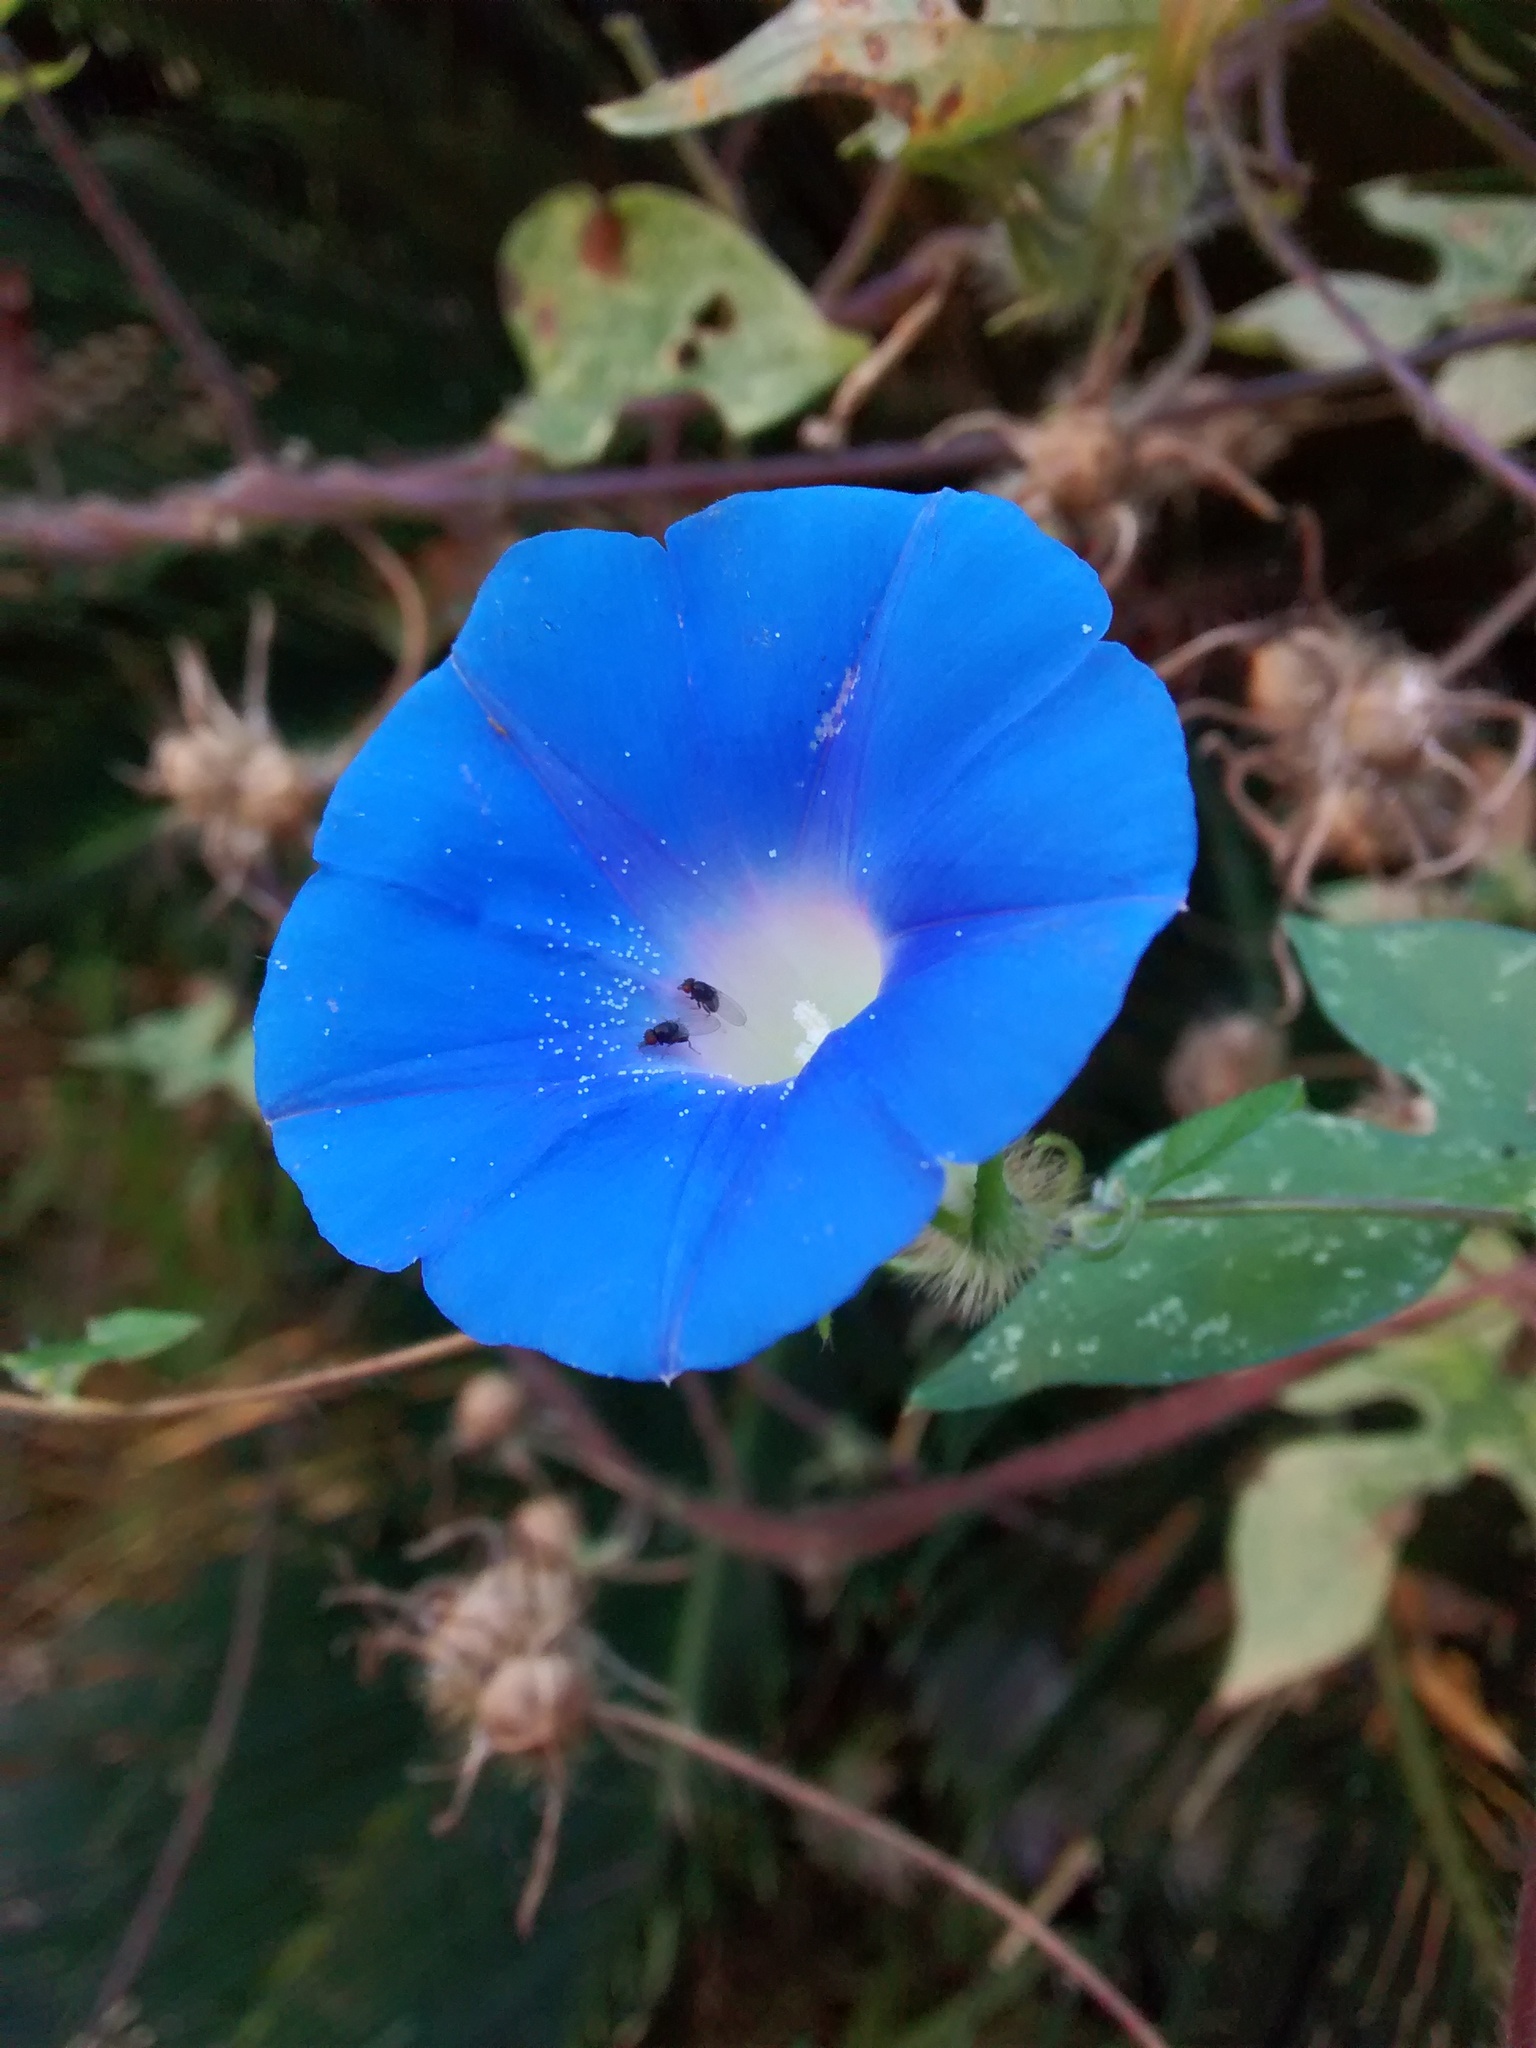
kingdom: Plantae
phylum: Tracheophyta
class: Magnoliopsida
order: Solanales
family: Convolvulaceae
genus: Ipomoea
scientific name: Ipomoea hederacea
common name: Ivy-leaved morning-glory
